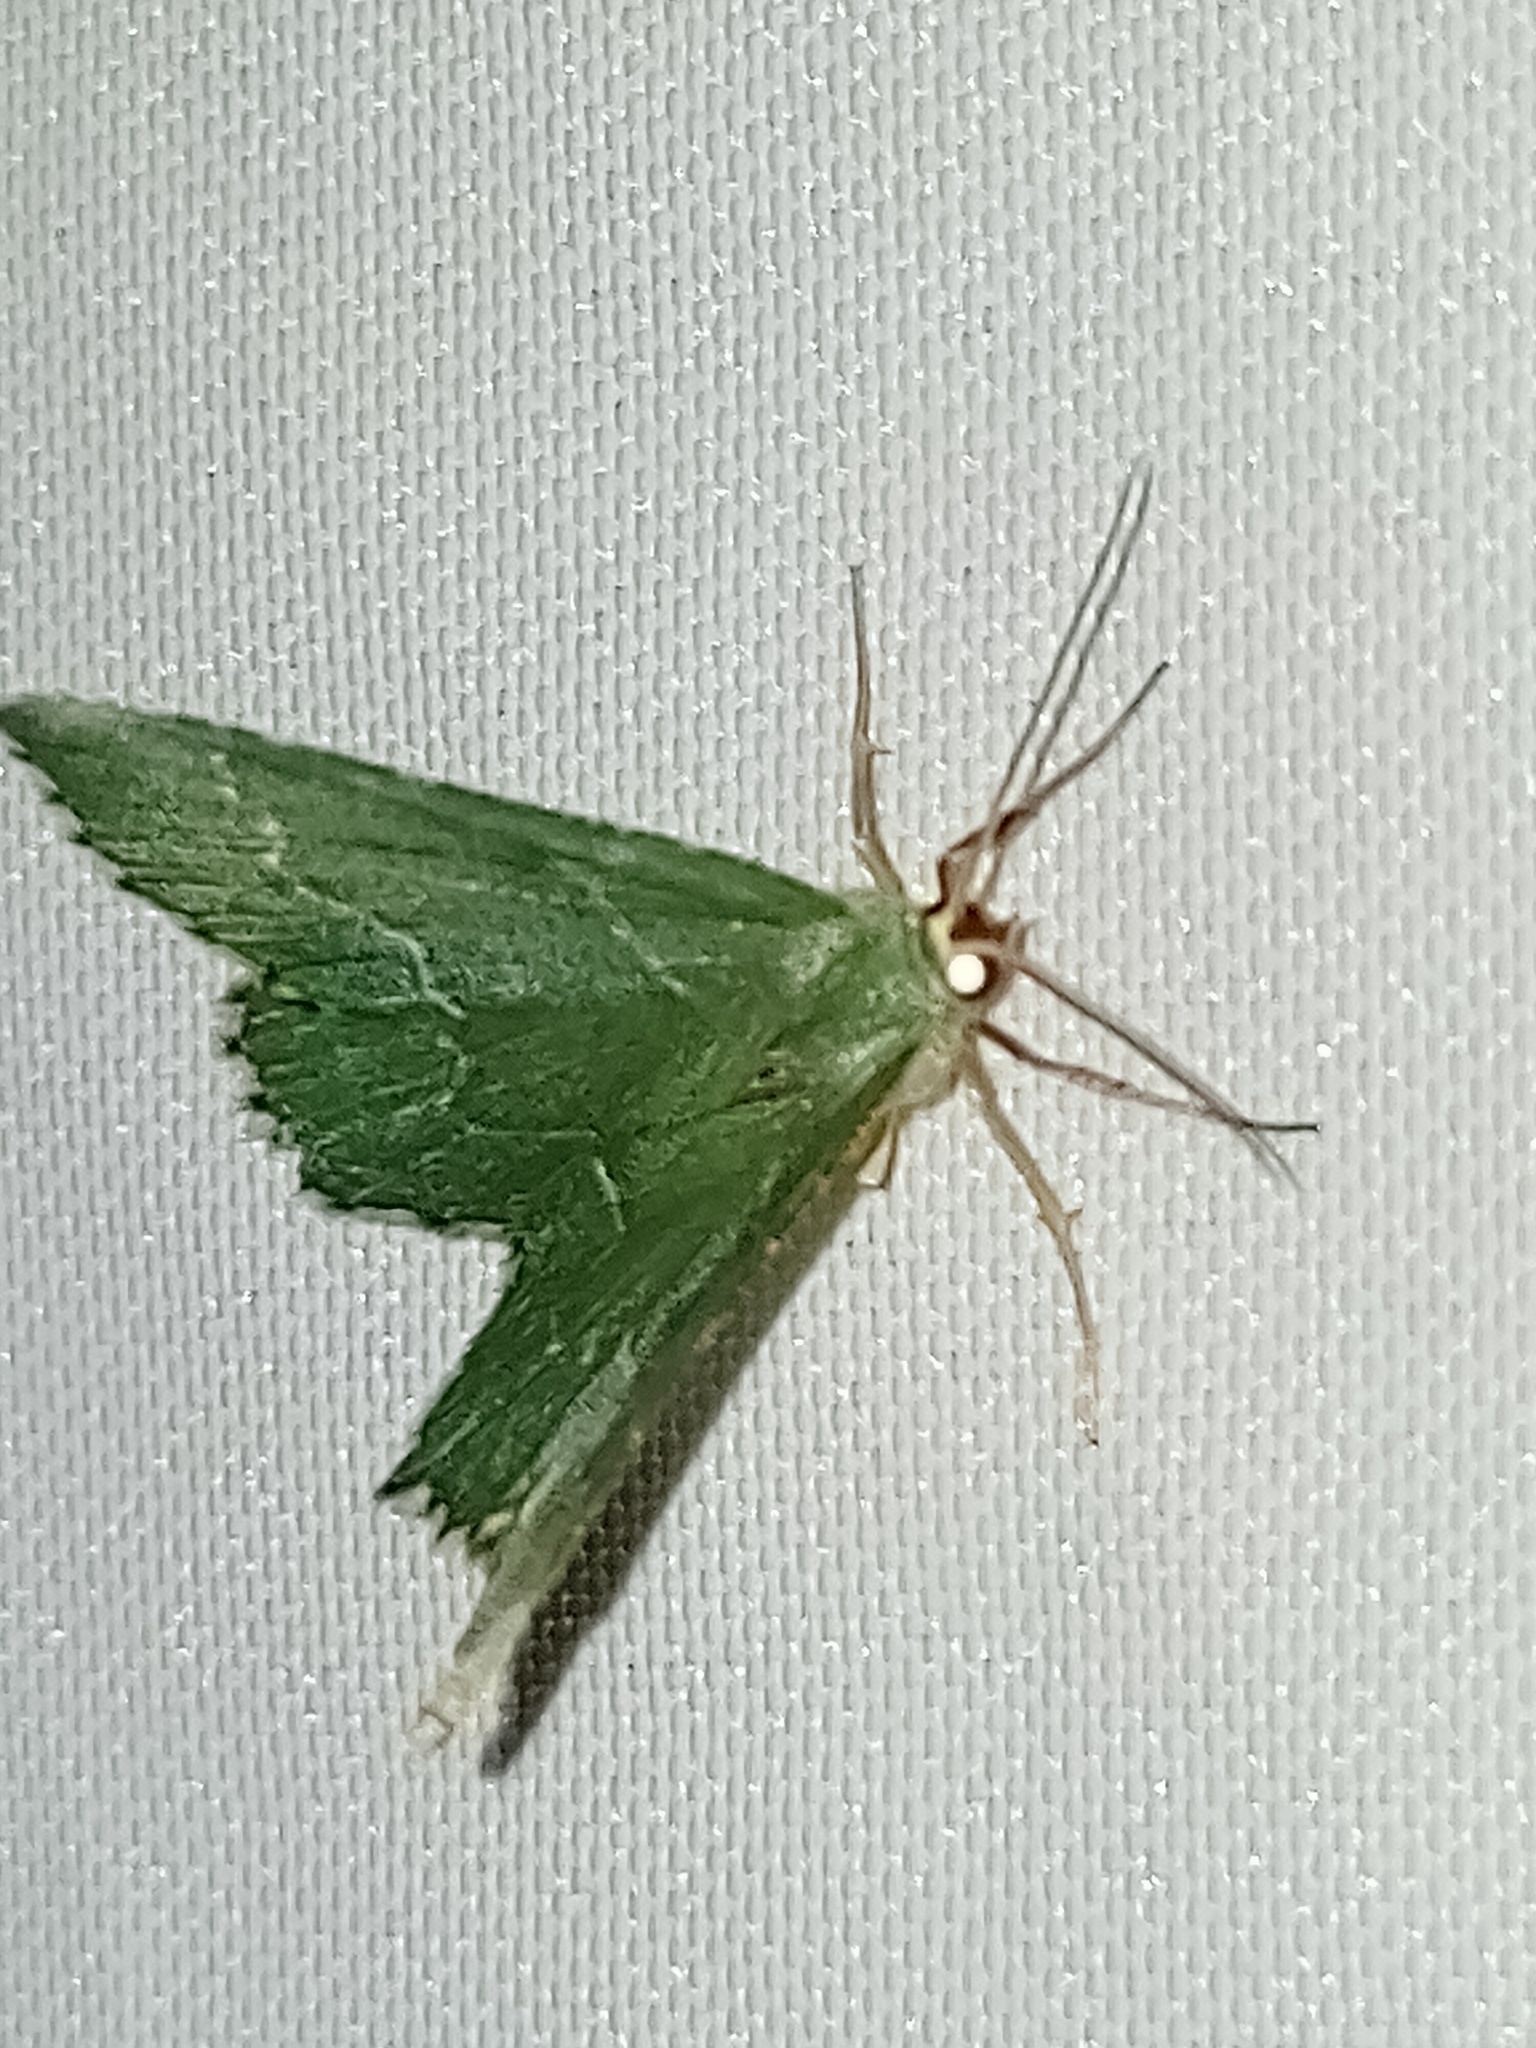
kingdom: Animalia
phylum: Arthropoda
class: Insecta
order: Lepidoptera
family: Geometridae
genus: Hemithea
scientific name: Hemithea aestivaria
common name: Common emerald
